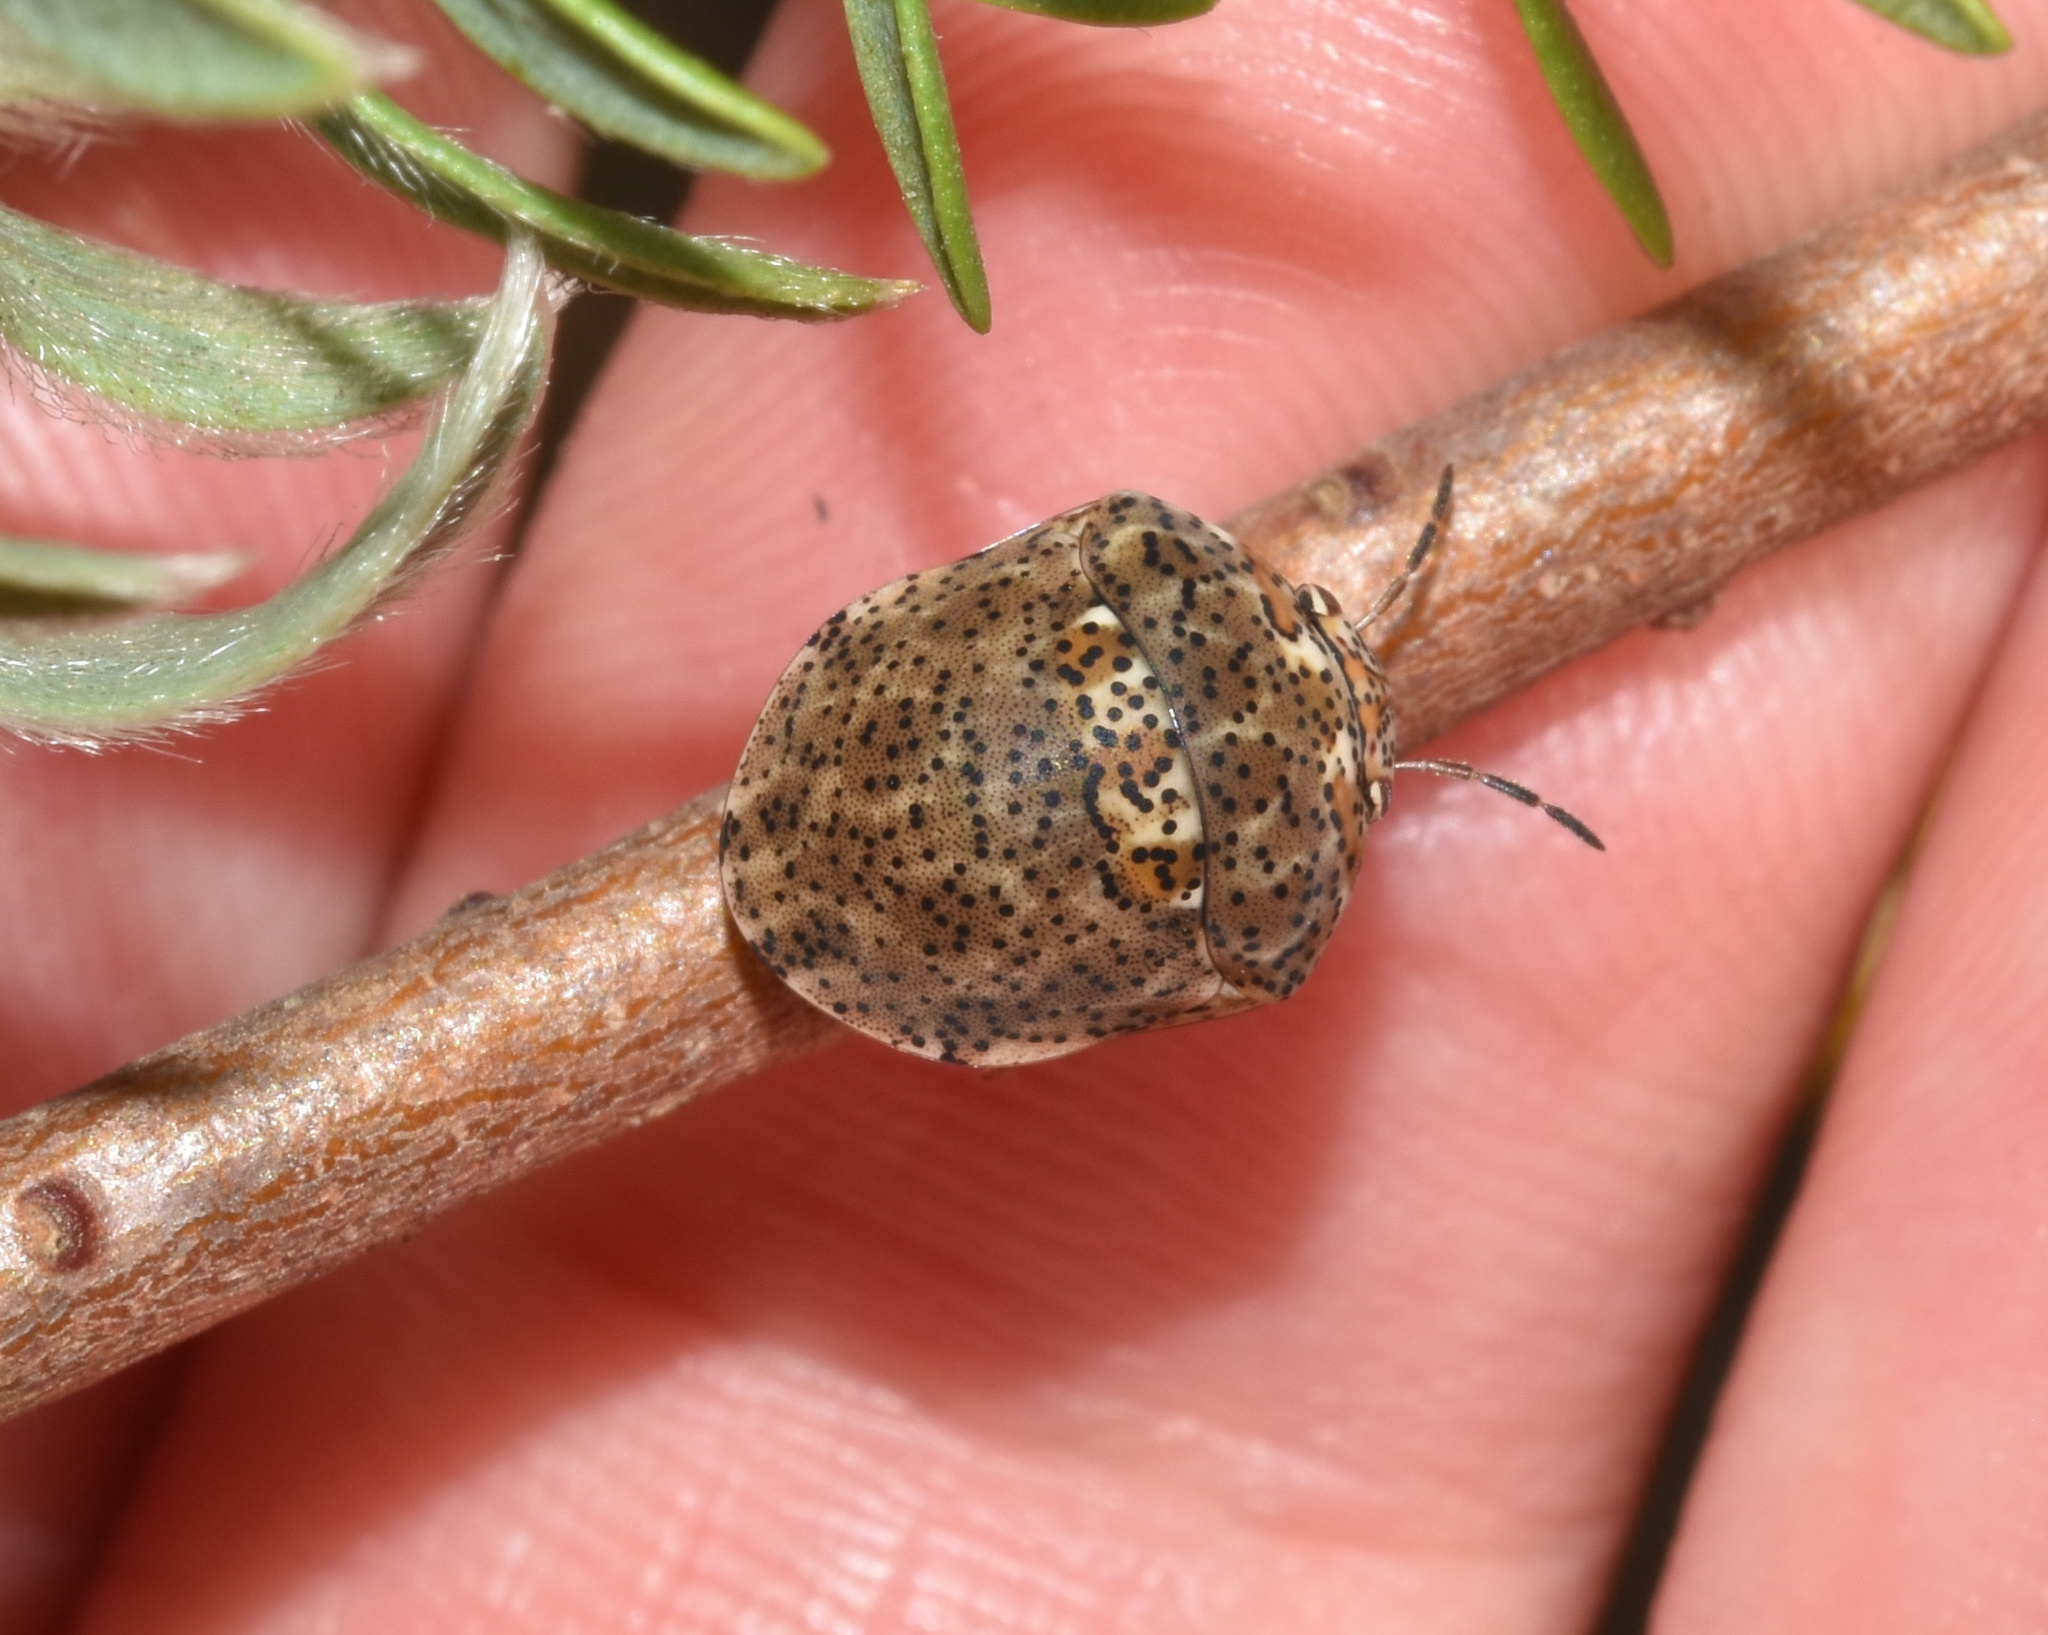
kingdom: Animalia
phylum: Arthropoda
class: Insecta
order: Hemiptera
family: Scutelleridae
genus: Sphaerocoris
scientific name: Sphaerocoris
